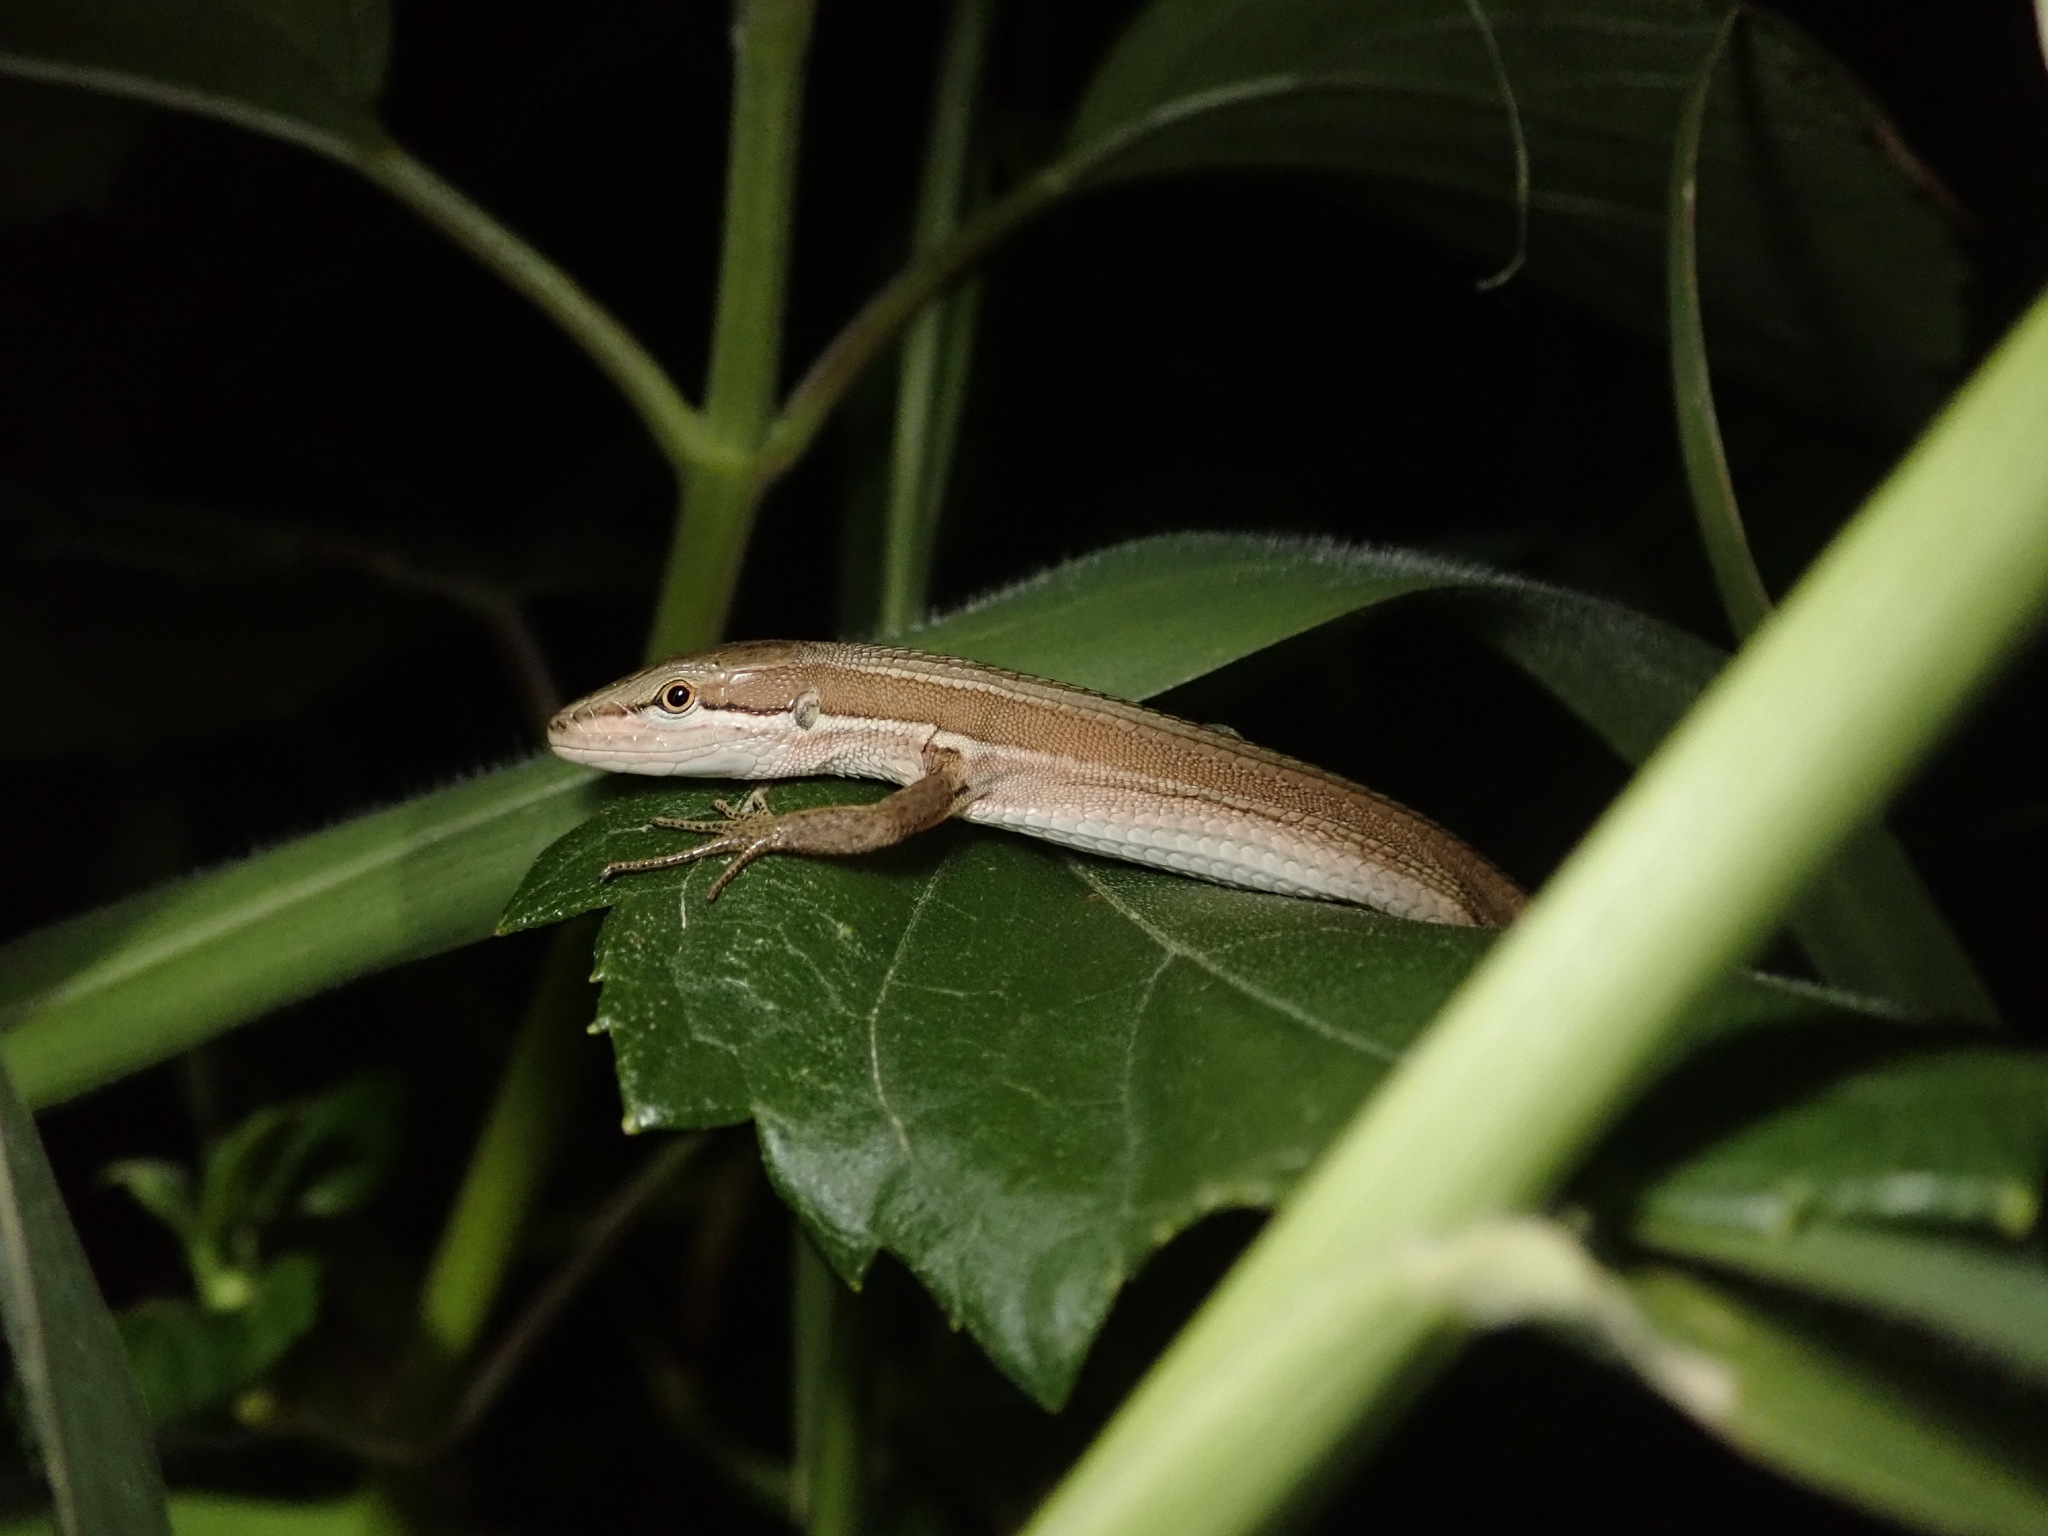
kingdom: Animalia
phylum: Chordata
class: Squamata
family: Lacertidae
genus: Takydromus
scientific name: Takydromus stejnegeri
